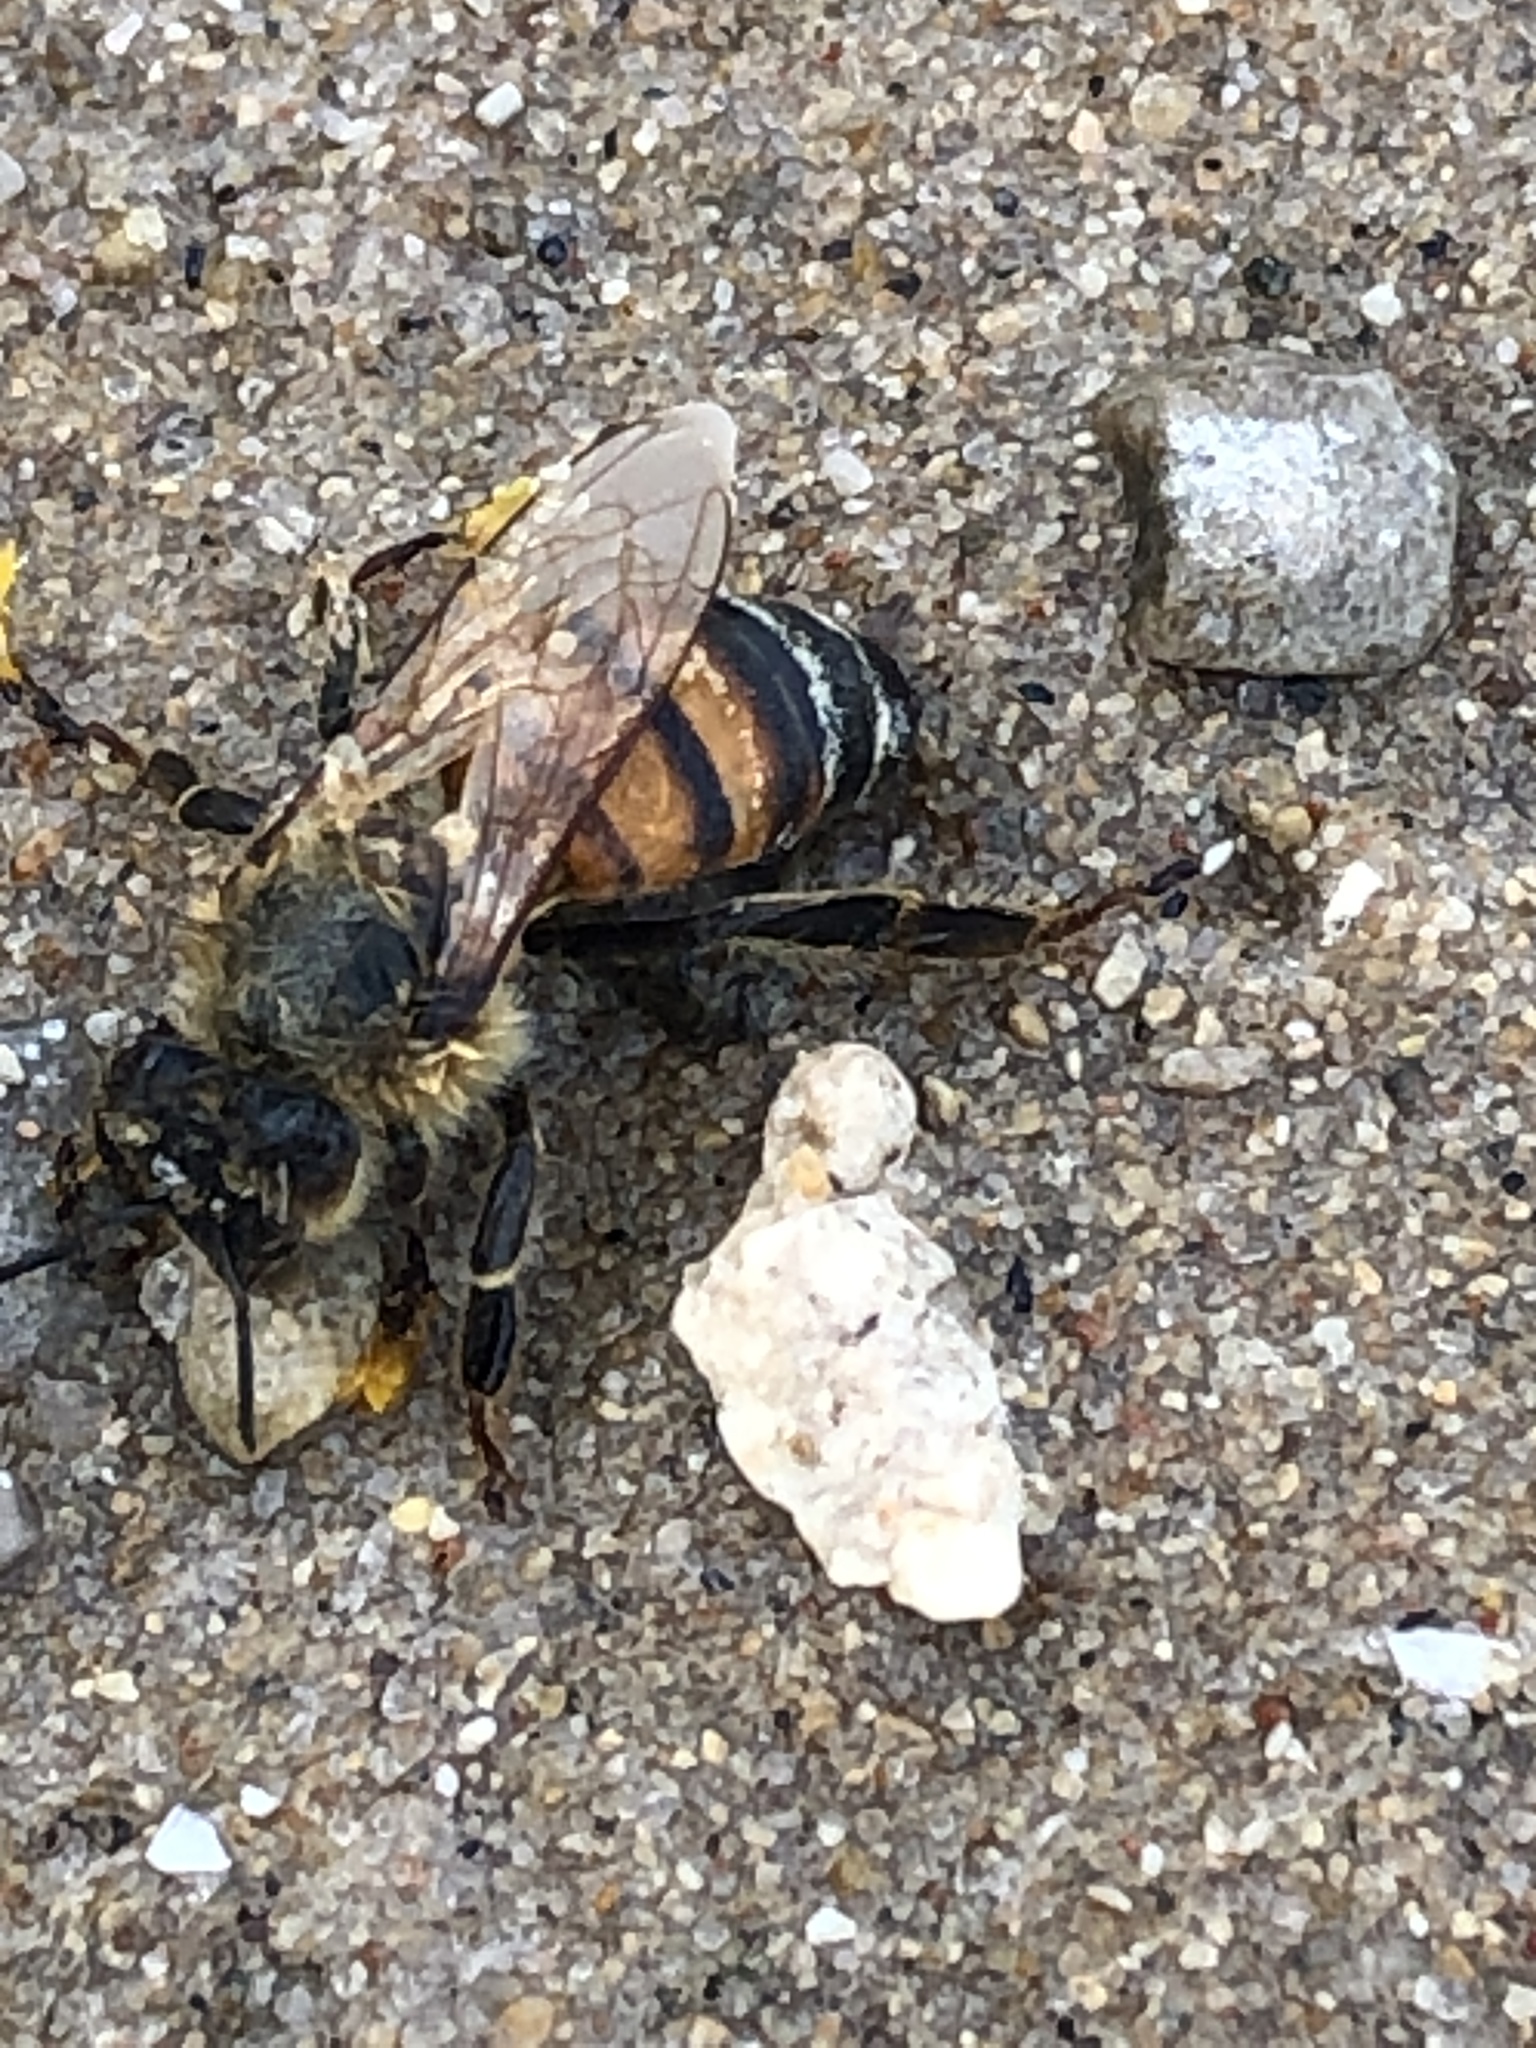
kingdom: Animalia
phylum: Arthropoda
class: Insecta
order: Hymenoptera
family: Apidae
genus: Apis
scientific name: Apis mellifera
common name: Honey bee
